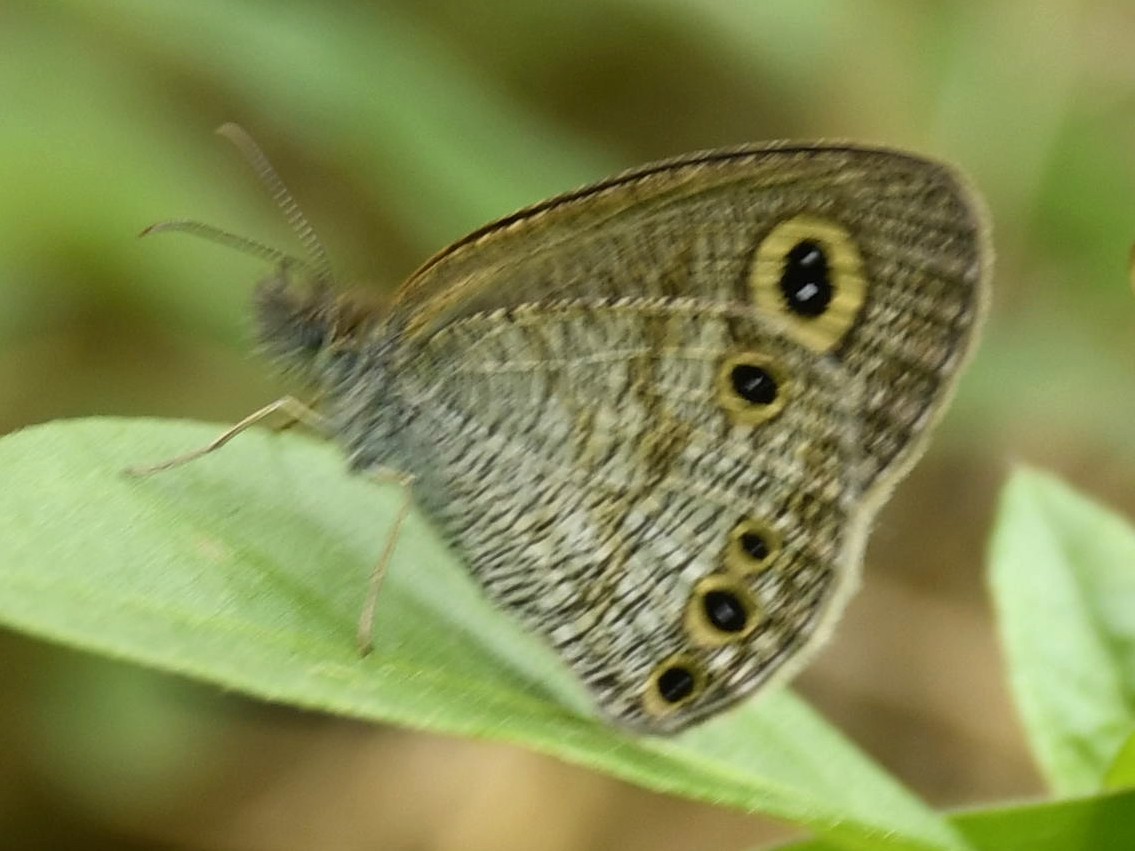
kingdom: Animalia
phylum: Arthropoda
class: Insecta
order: Lepidoptera
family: Nymphalidae
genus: Ypthima
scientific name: Ypthima huebneri
